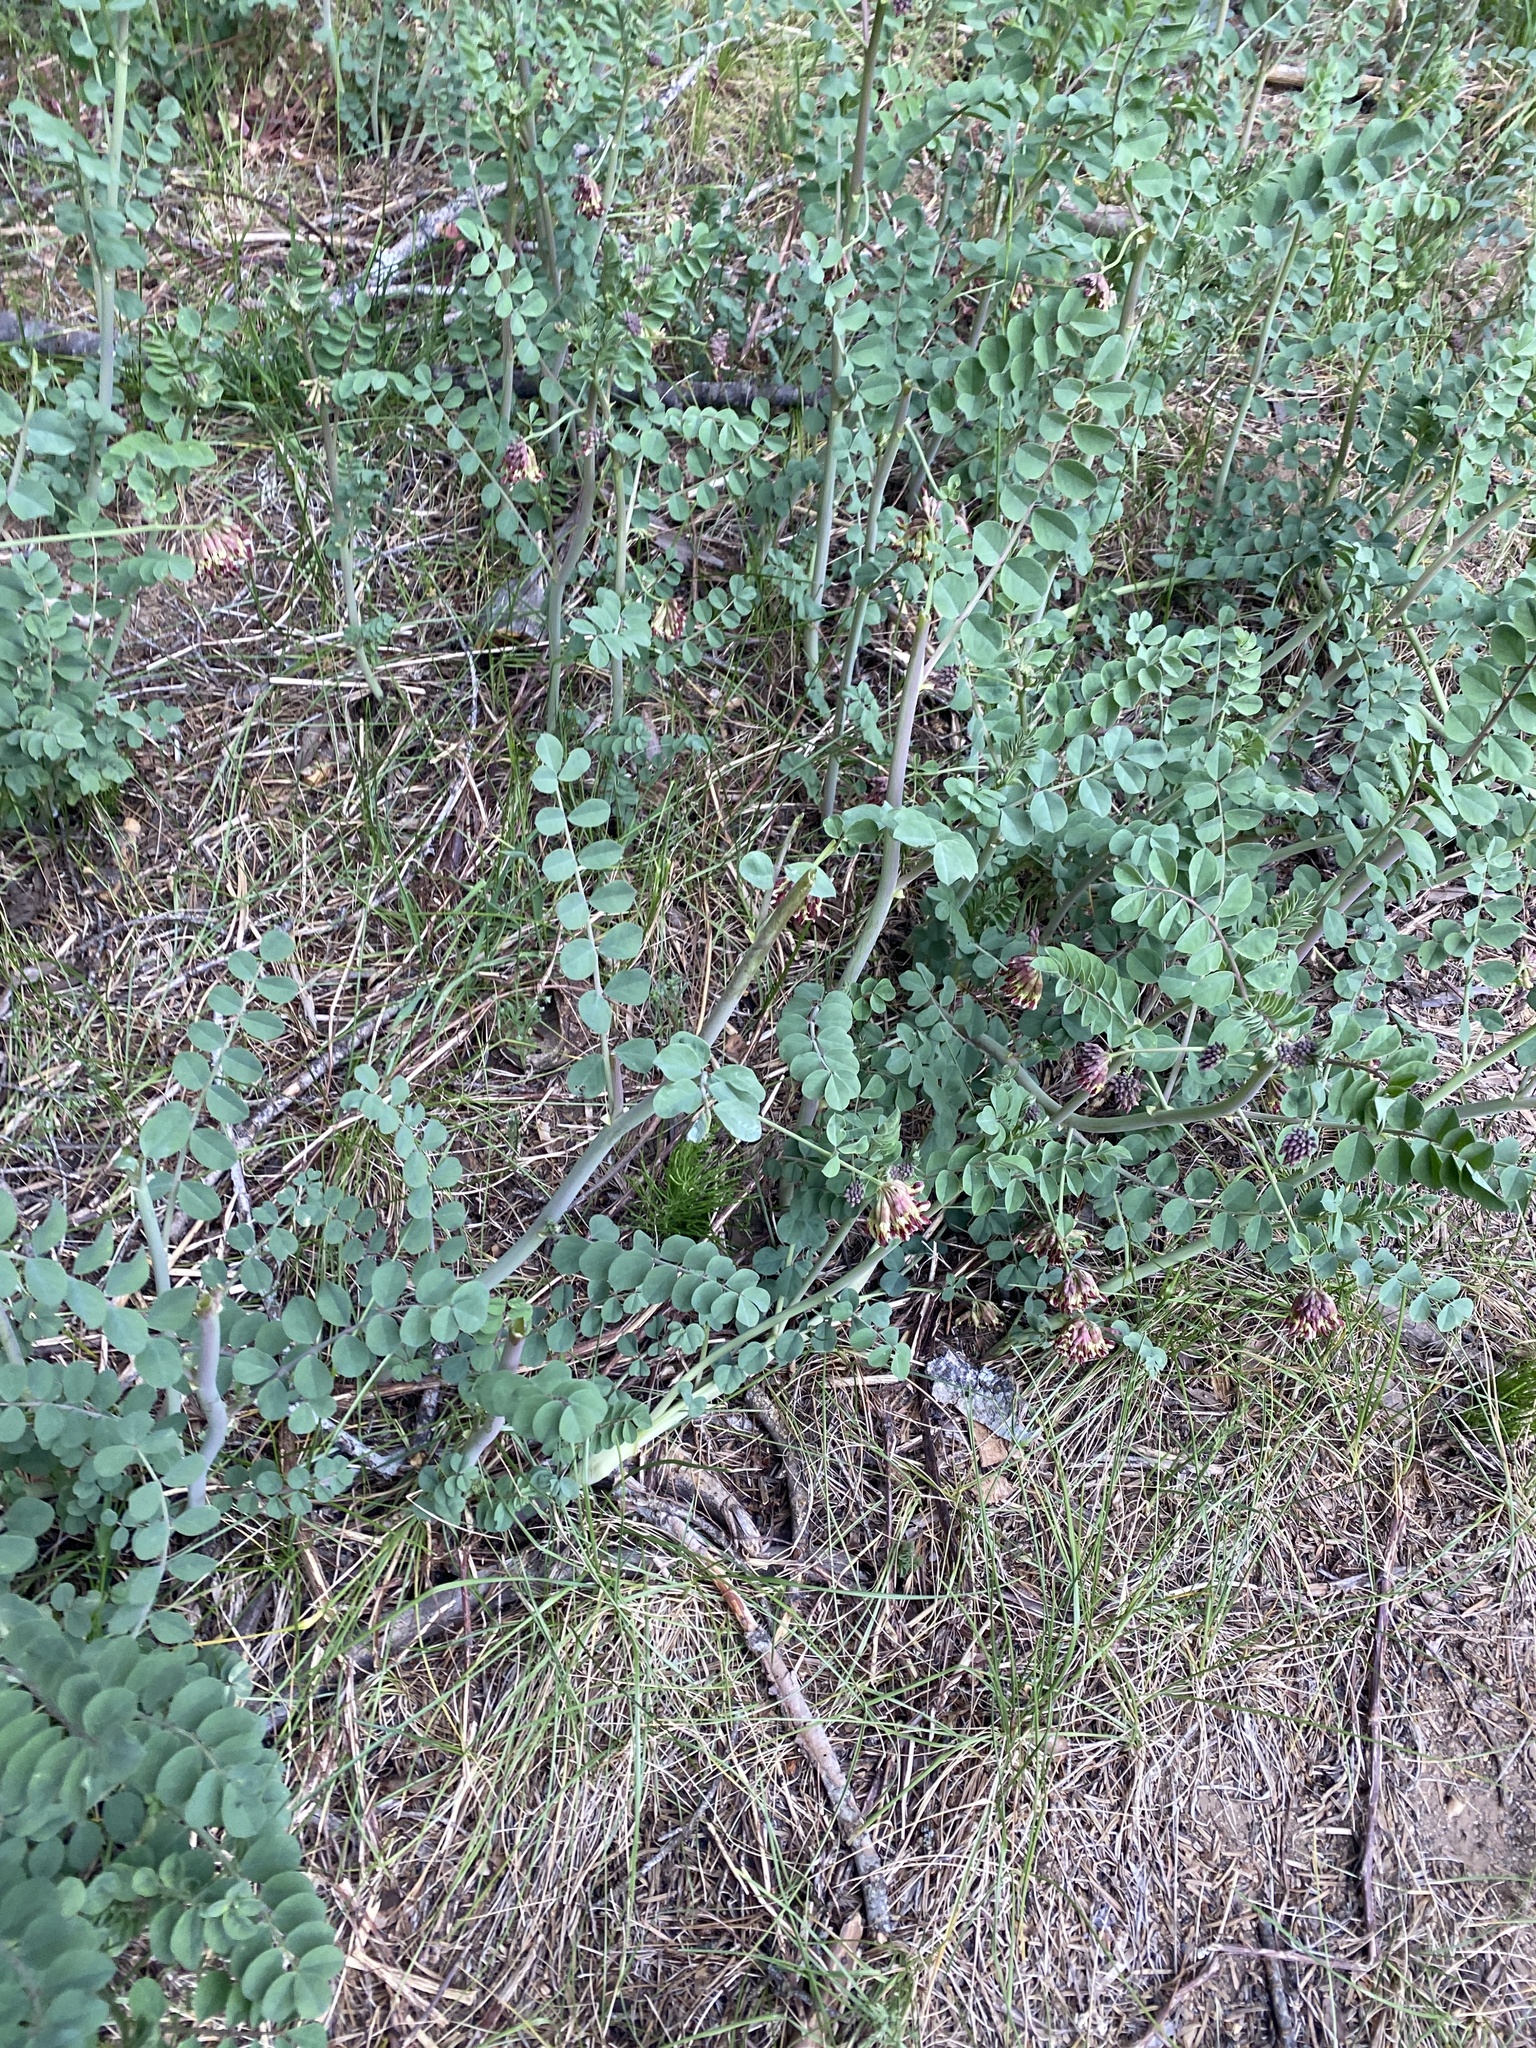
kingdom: Plantae
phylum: Tracheophyta
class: Magnoliopsida
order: Fabales
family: Fabaceae
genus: Hosackia
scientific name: Hosackia crassifolia
